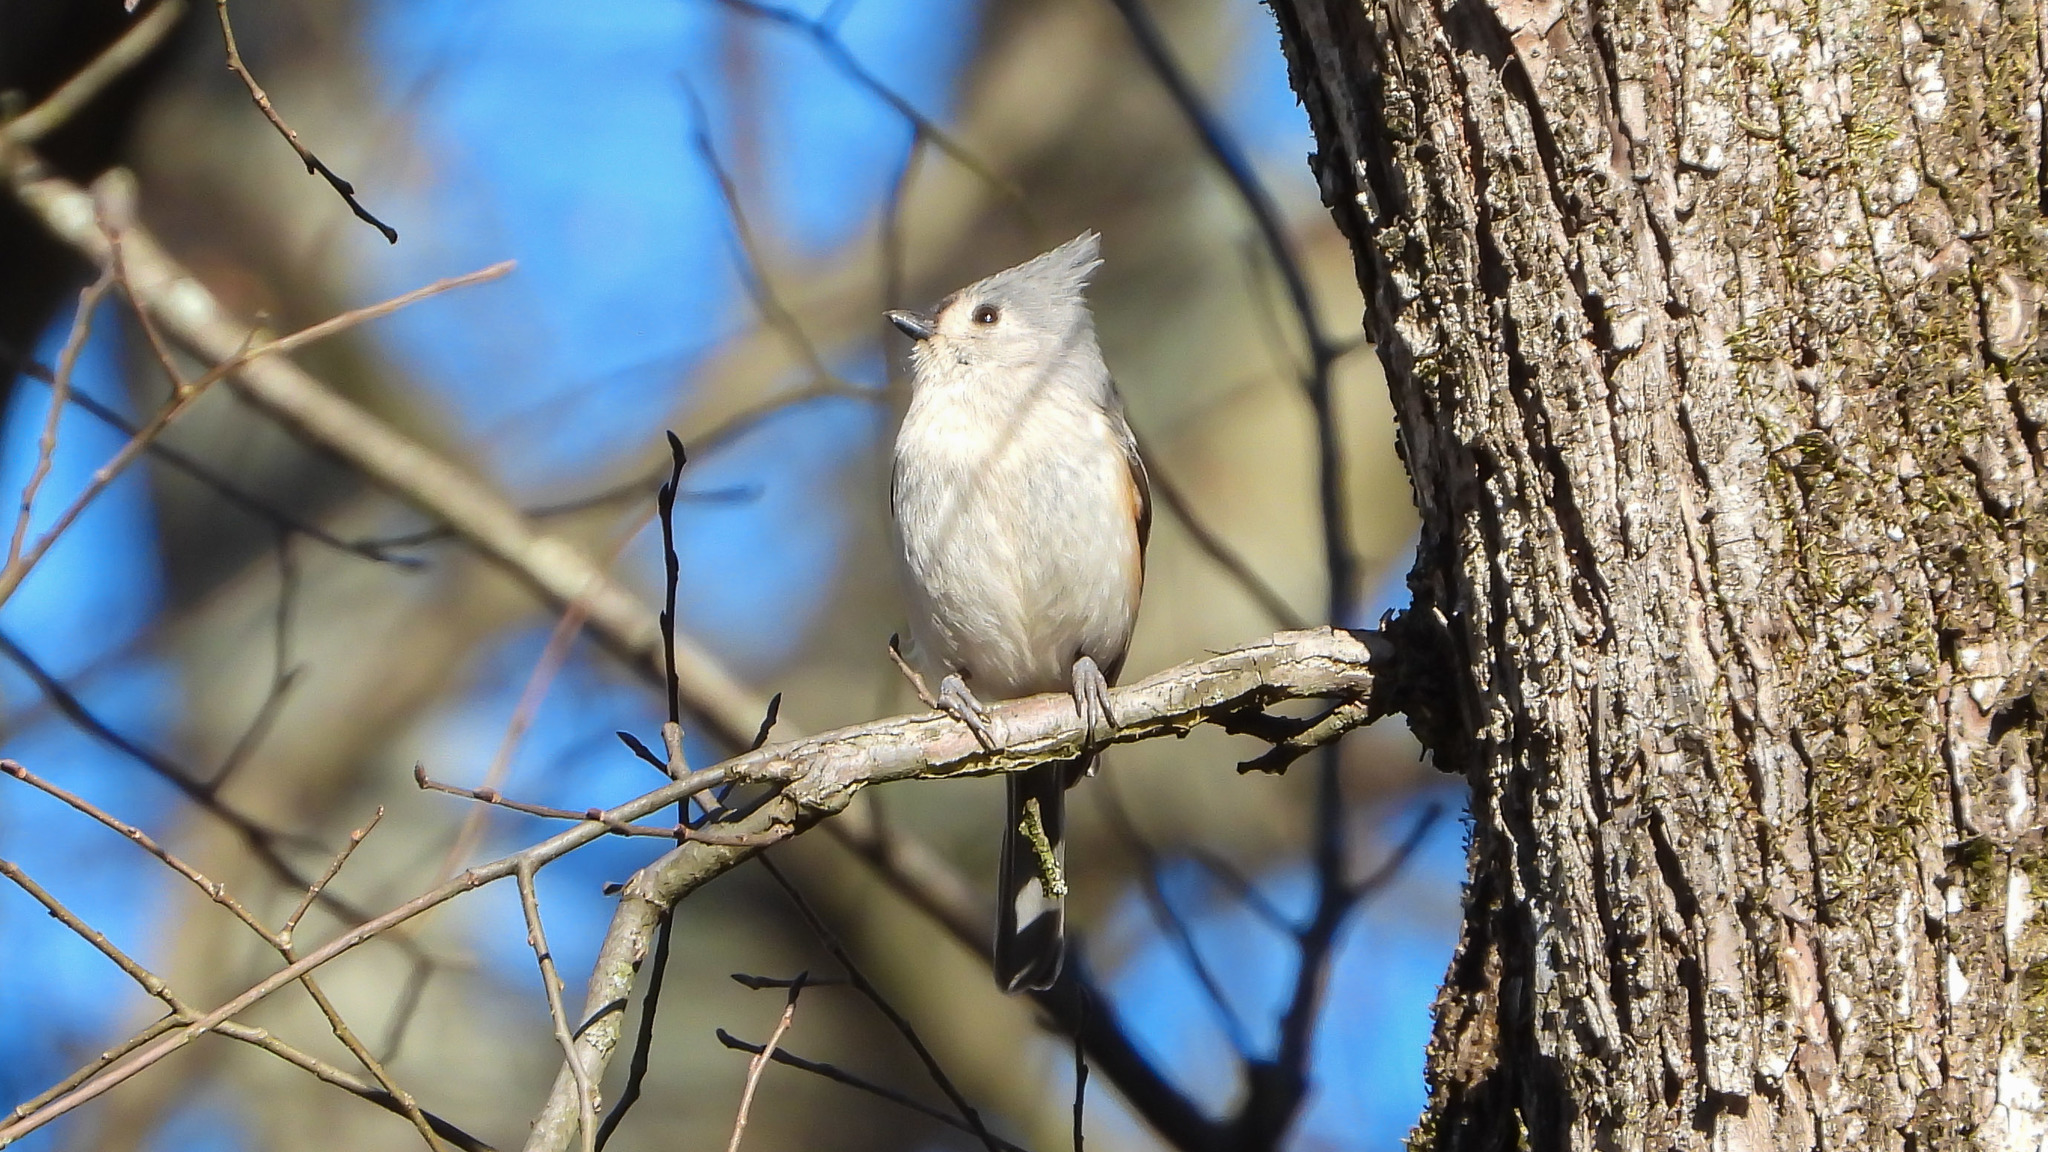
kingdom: Animalia
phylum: Chordata
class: Aves
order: Passeriformes
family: Paridae
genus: Baeolophus
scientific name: Baeolophus bicolor
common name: Tufted titmouse
